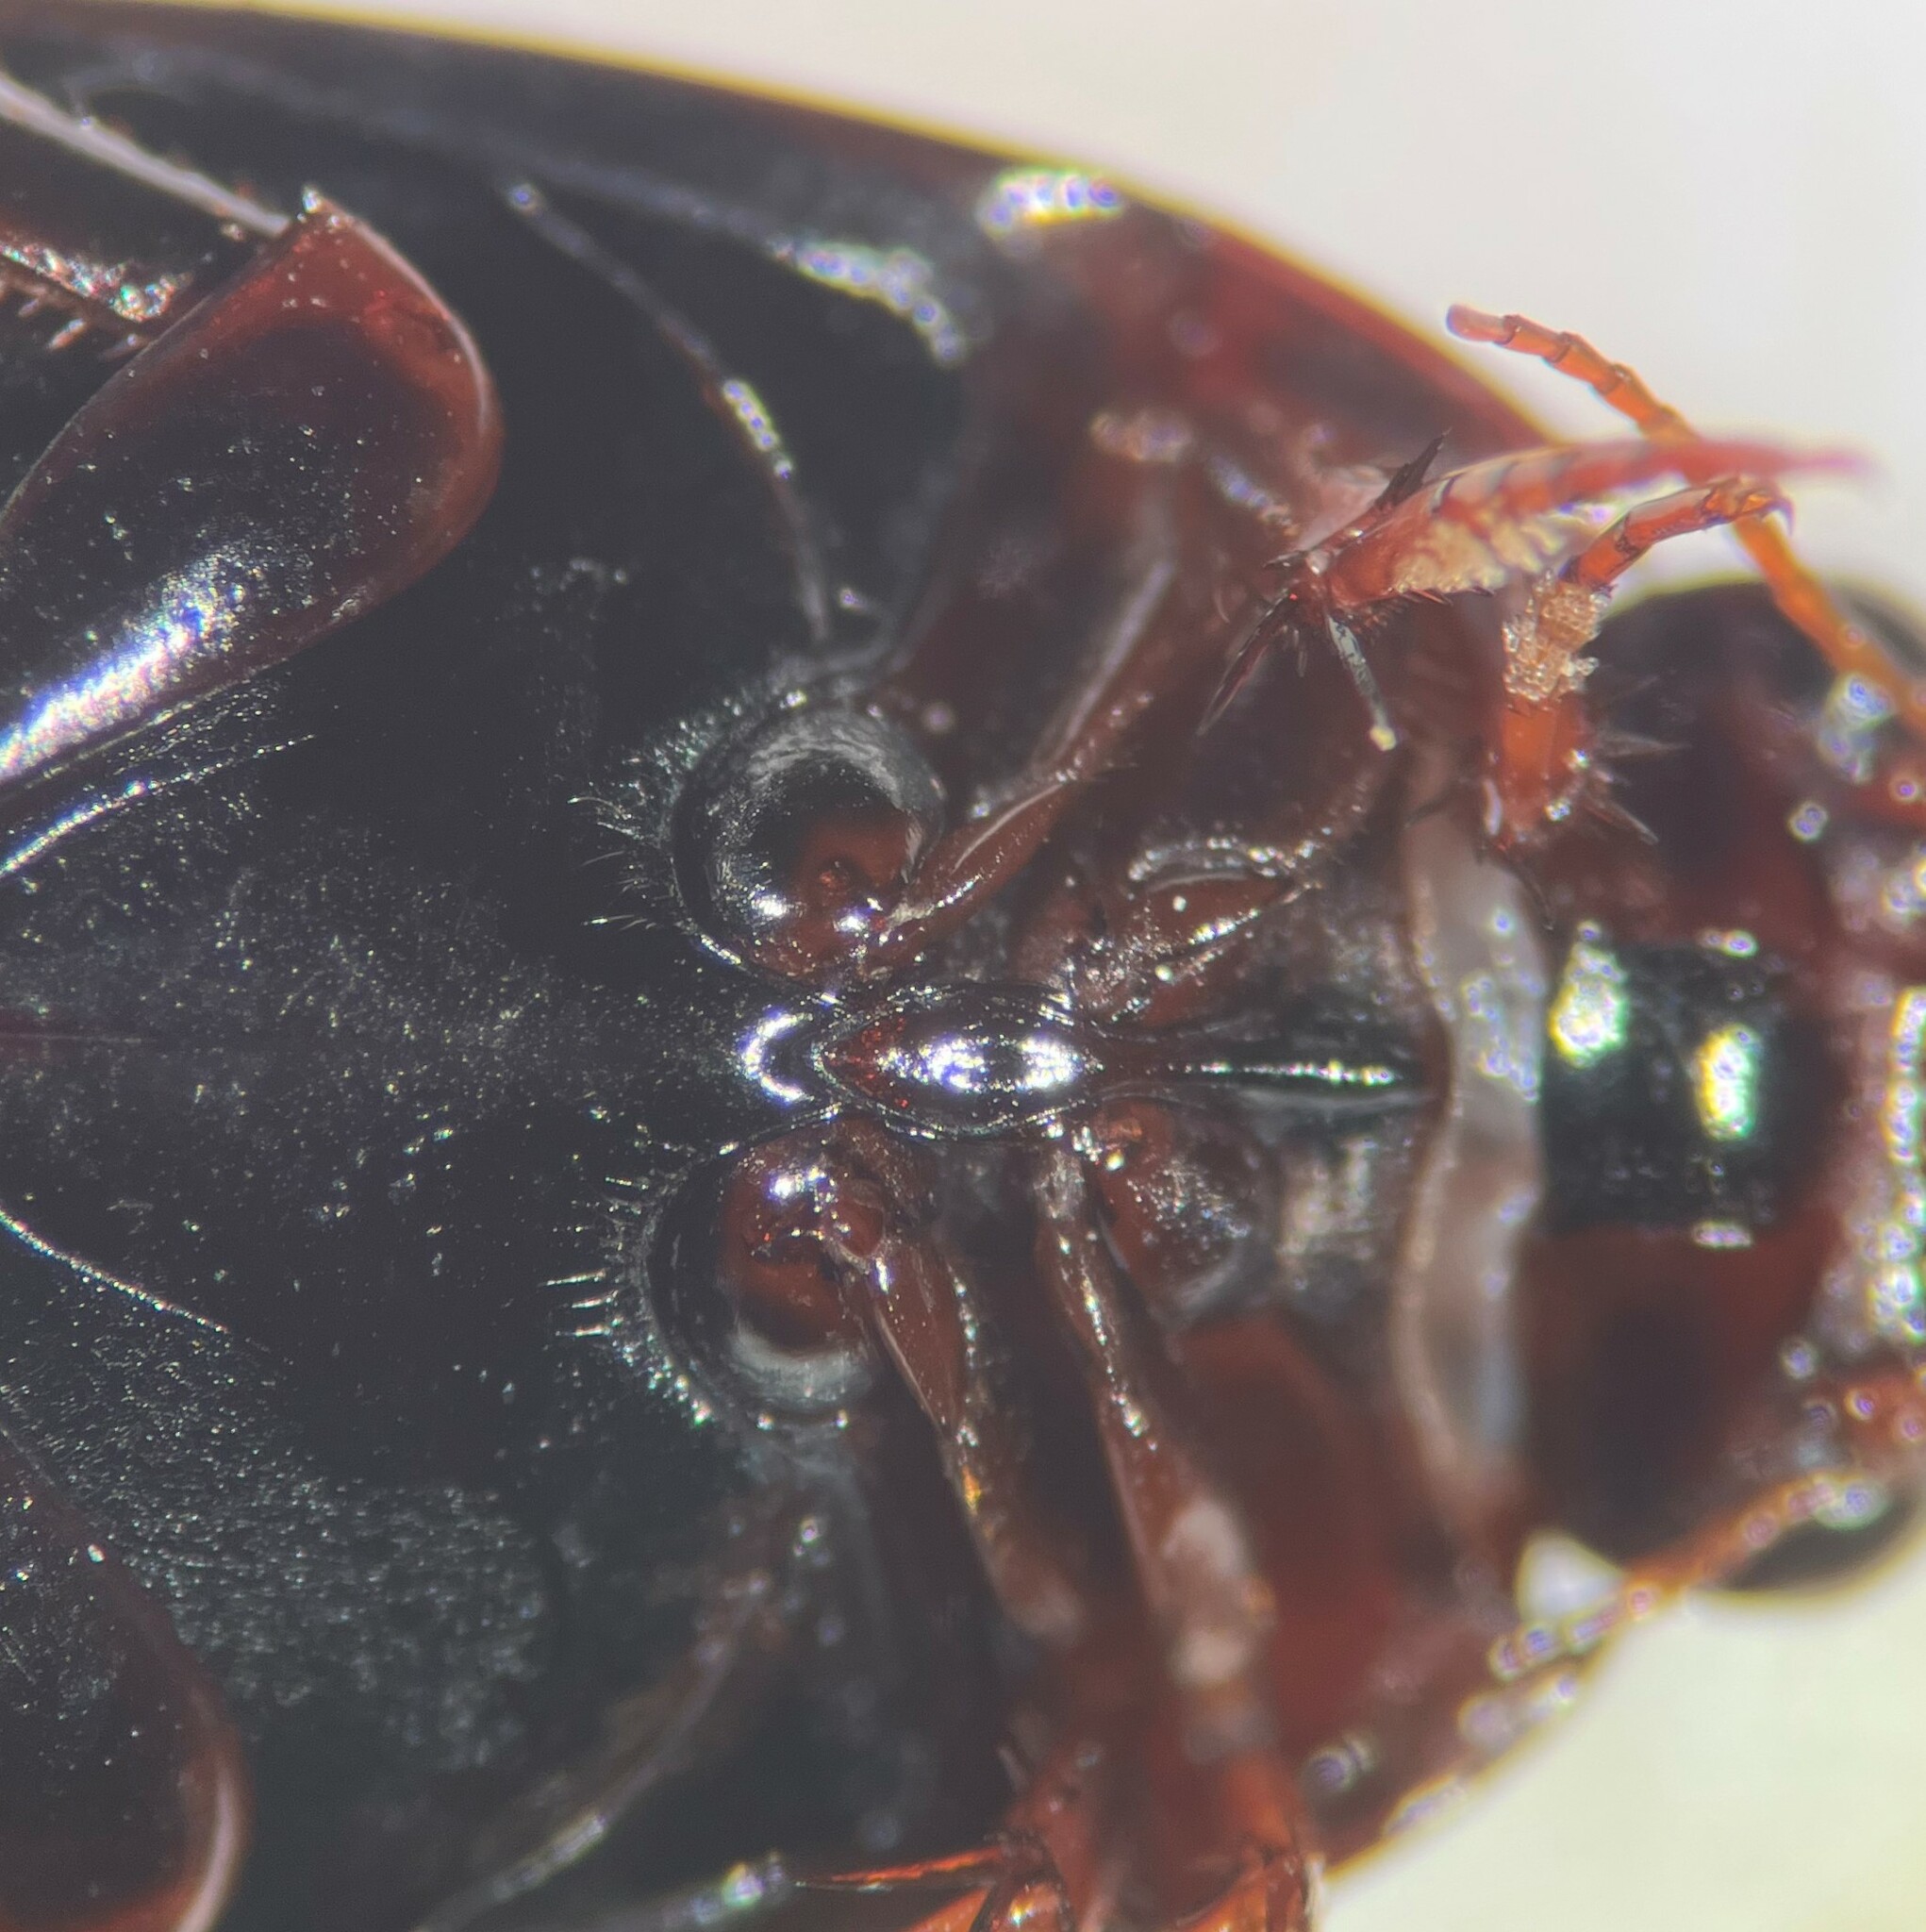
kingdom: Animalia
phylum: Arthropoda
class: Insecta
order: Coleoptera
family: Dytiscidae
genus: Platambus
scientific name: Platambus semivittatus
